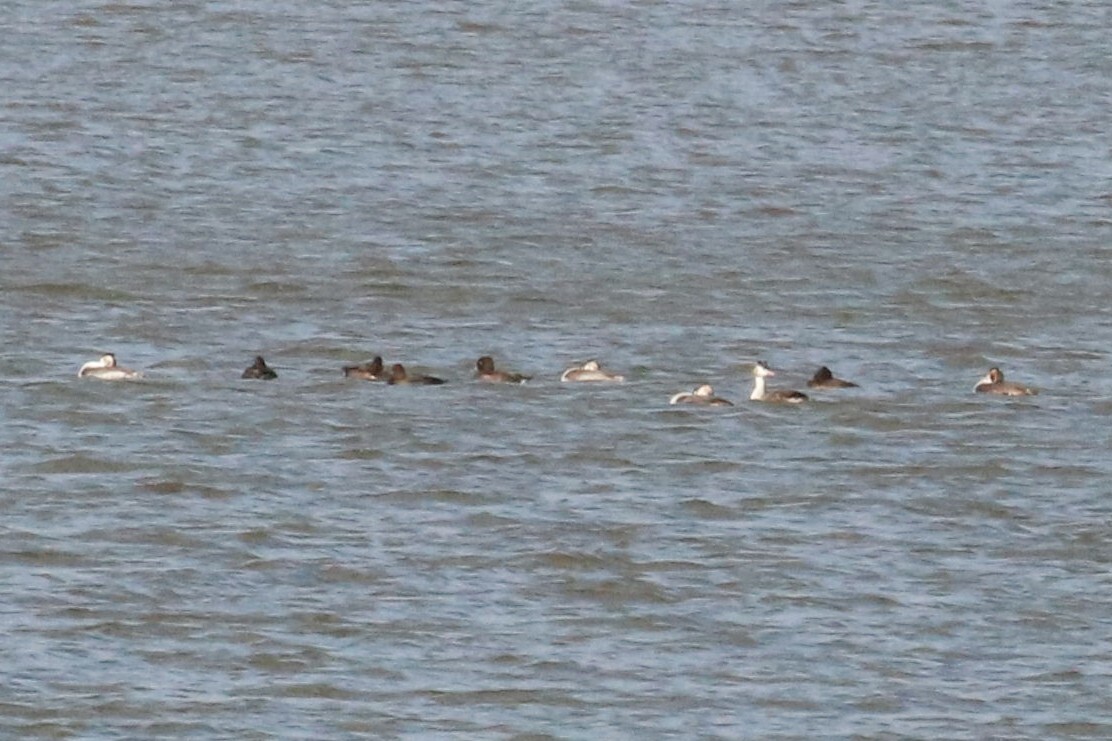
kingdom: Animalia
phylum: Chordata
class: Aves
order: Podicipediformes
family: Podicipedidae
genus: Podiceps
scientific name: Podiceps cristatus
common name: Great crested grebe
